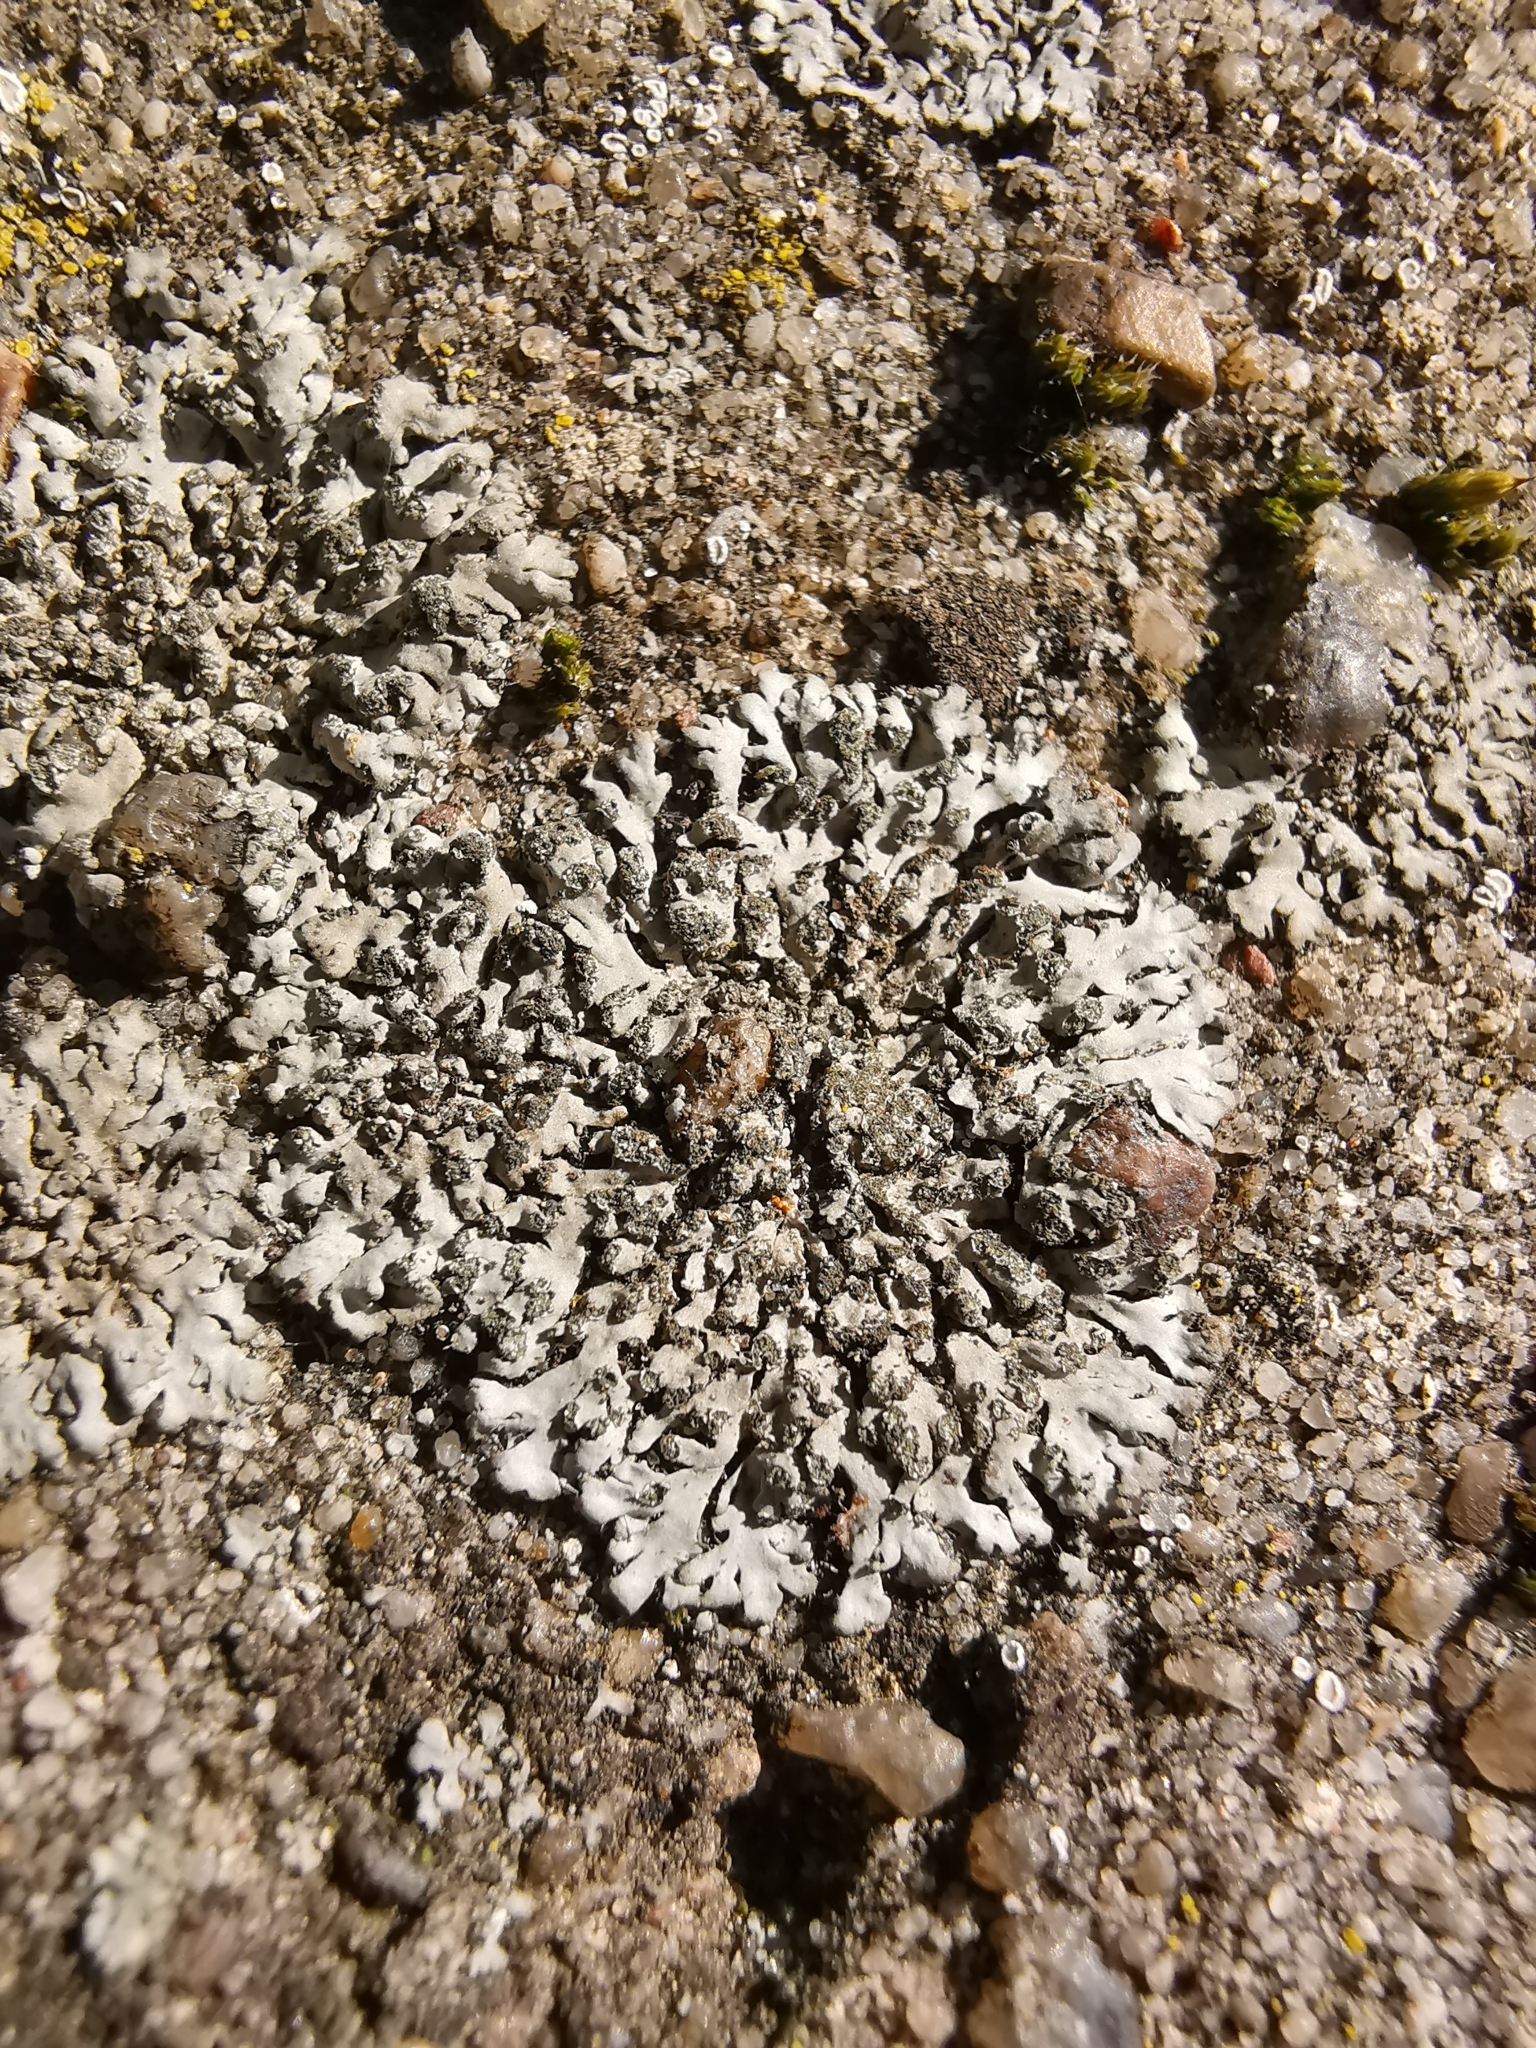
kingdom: Fungi
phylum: Ascomycota
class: Lecanoromycetes
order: Caliciales
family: Physciaceae
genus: Phaeophyscia
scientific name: Phaeophyscia orbicularis
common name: Mealy shadow lichen
